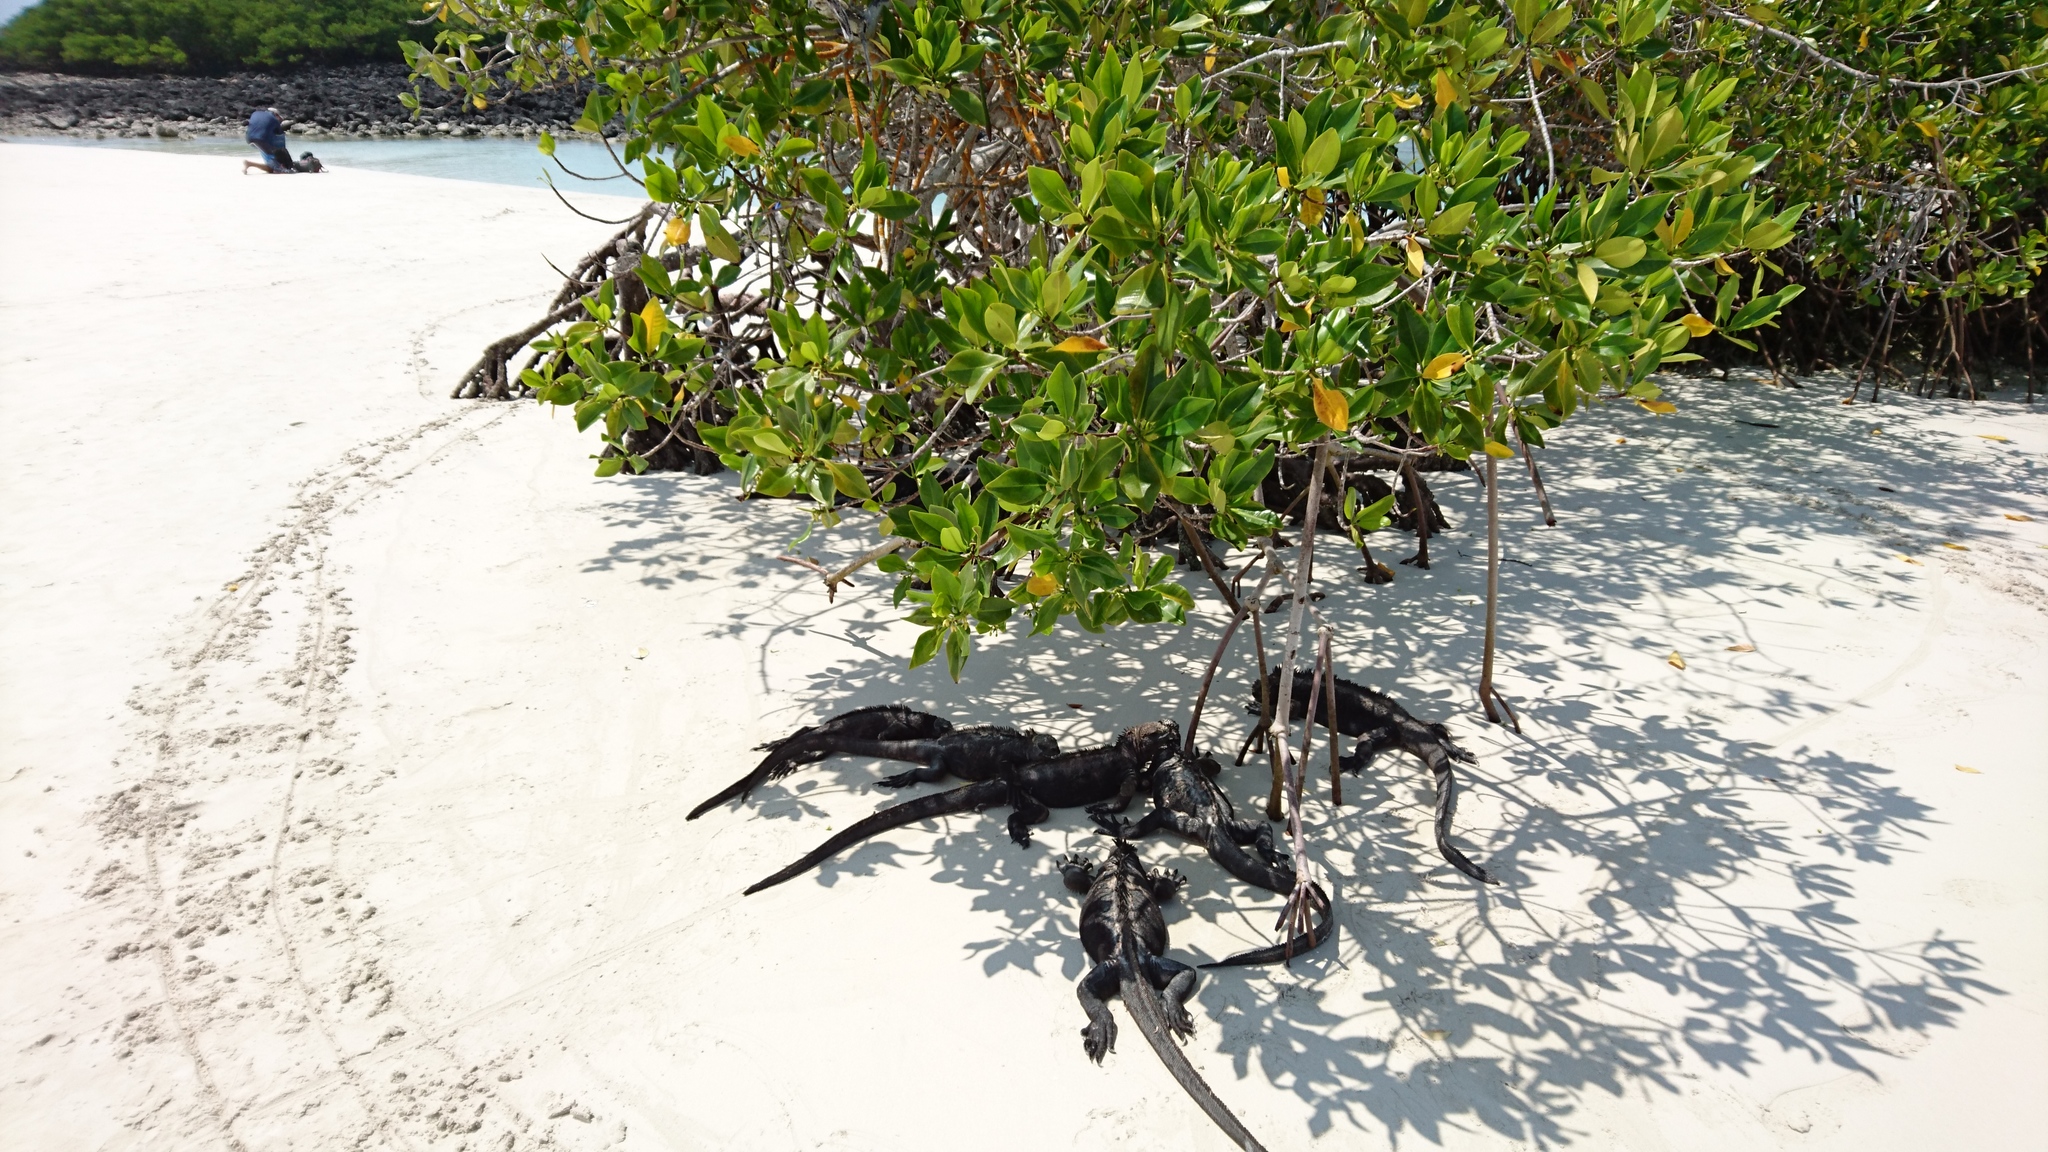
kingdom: Animalia
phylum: Chordata
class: Squamata
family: Iguanidae
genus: Amblyrhynchus
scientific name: Amblyrhynchus cristatus
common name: Marine iguana
